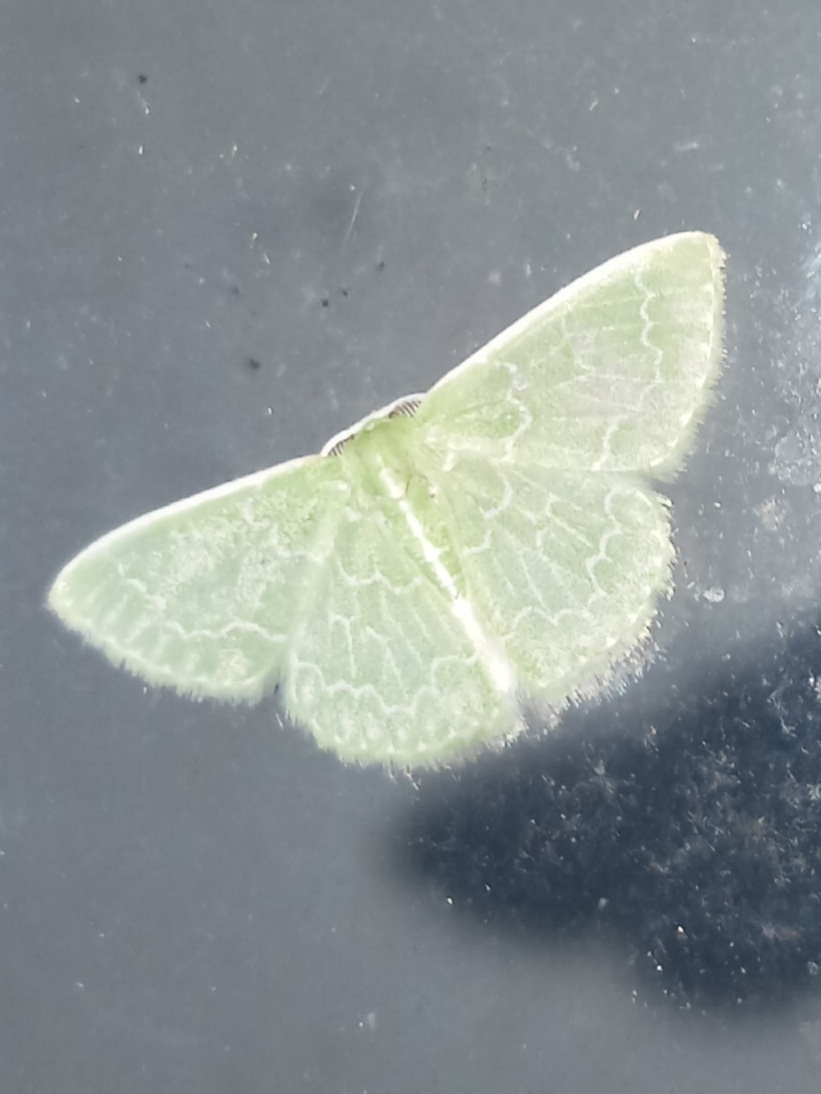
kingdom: Animalia
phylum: Arthropoda
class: Insecta
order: Lepidoptera
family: Geometridae
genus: Synchlora
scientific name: Synchlora frondaria
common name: Southern emerald
